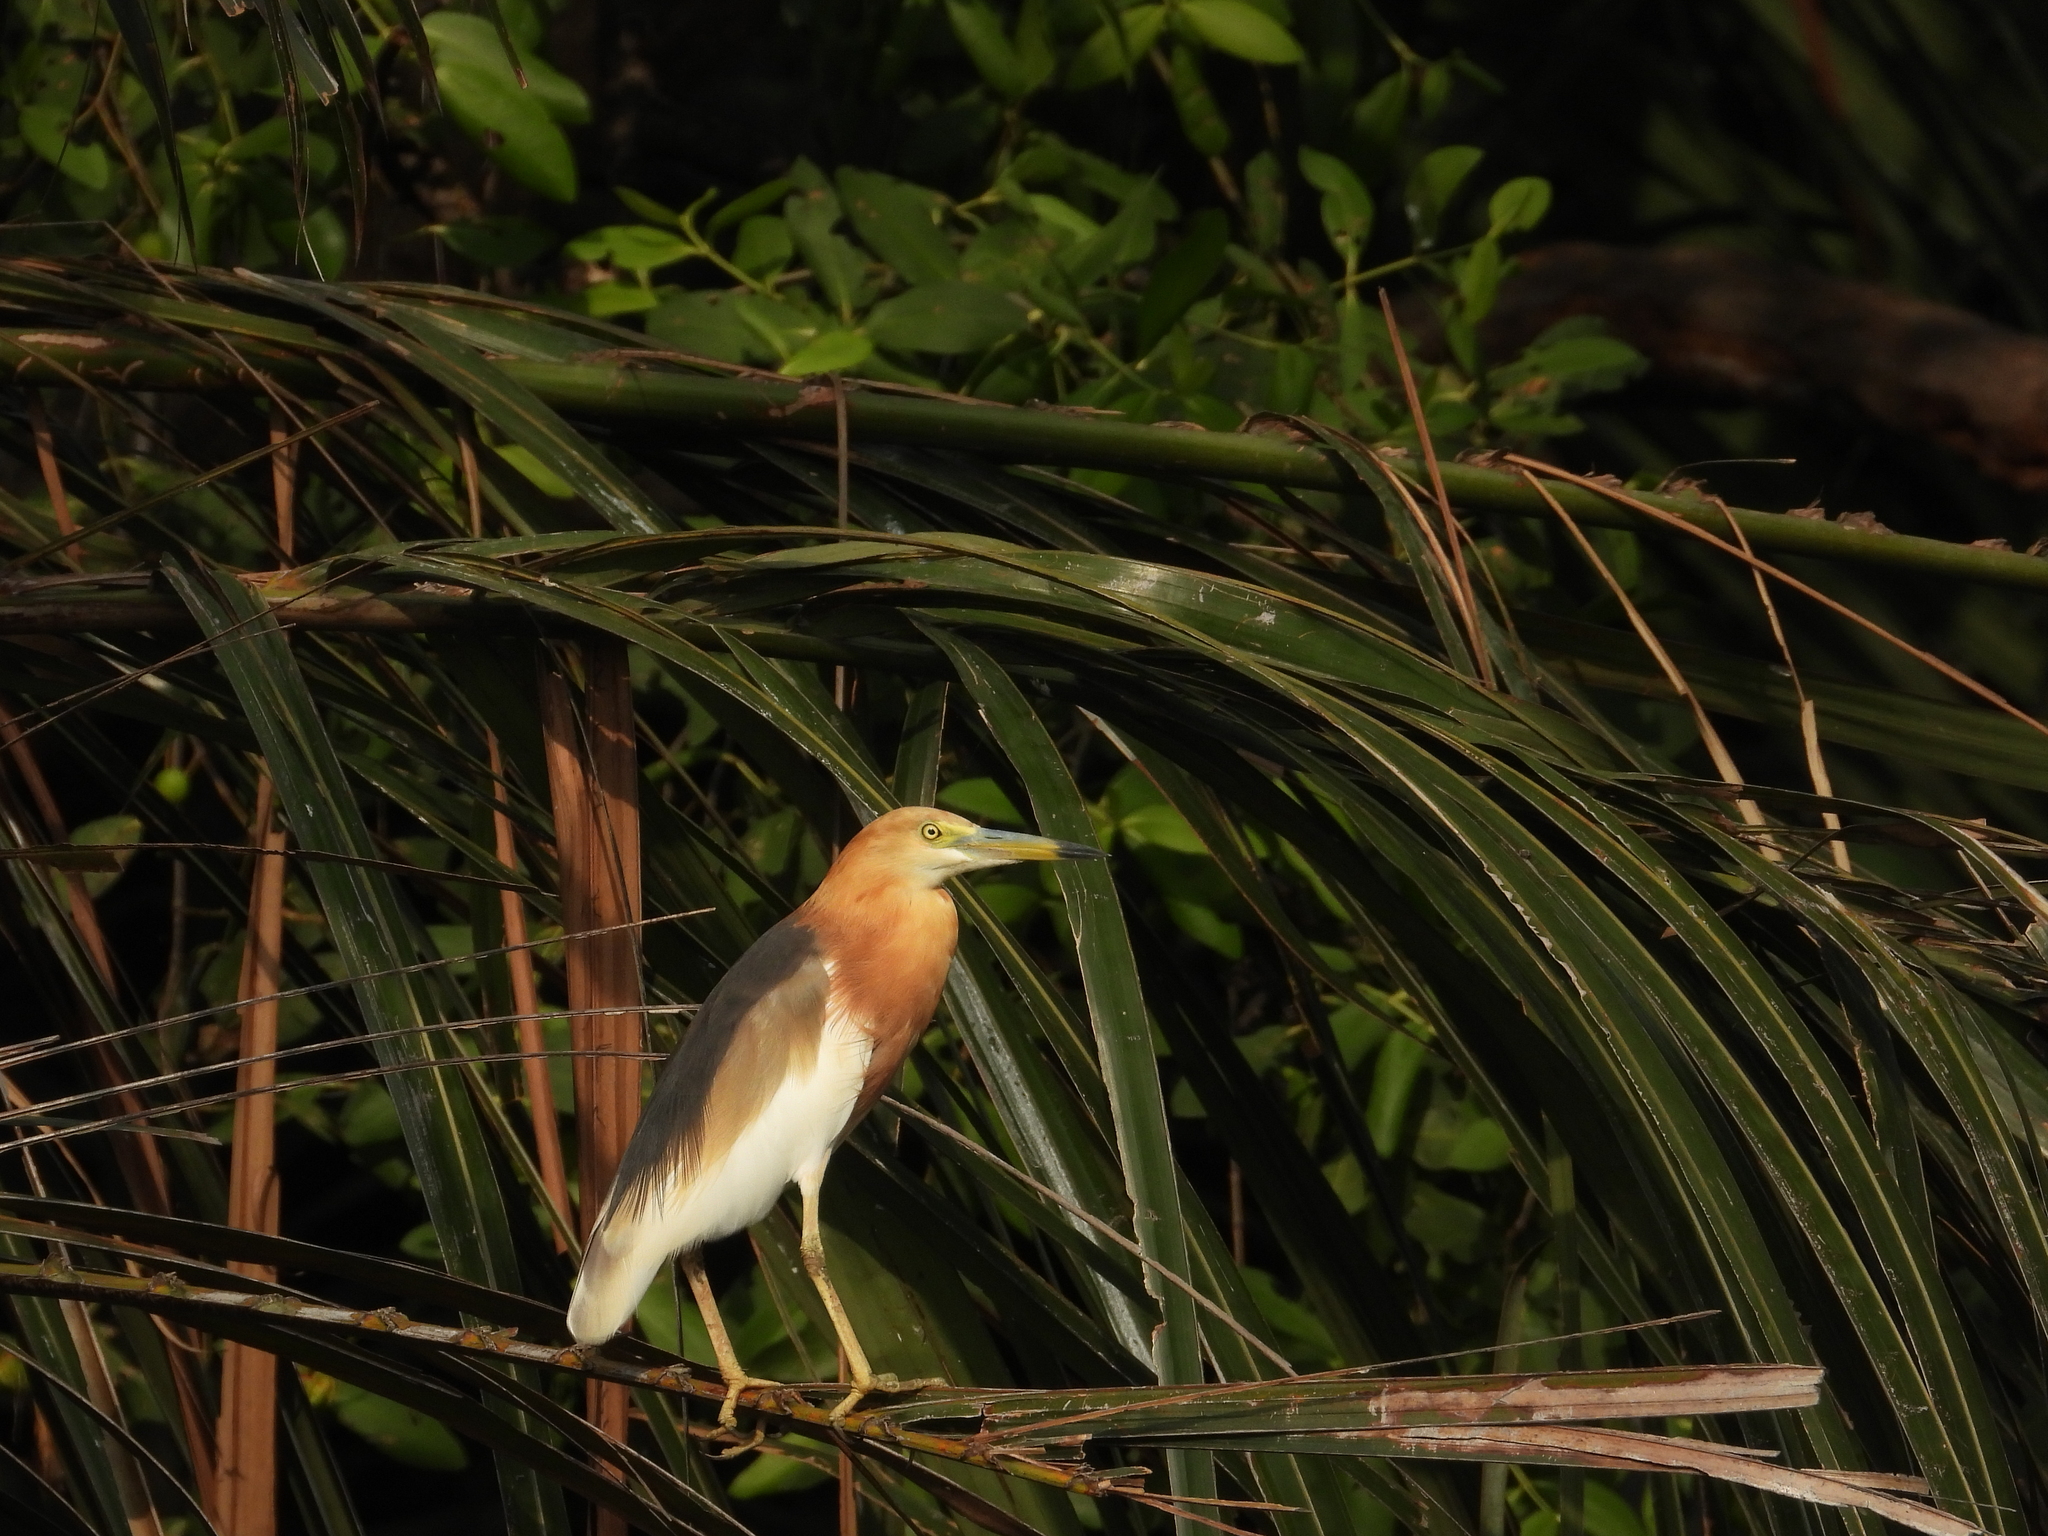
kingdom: Animalia
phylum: Chordata
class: Aves
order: Pelecaniformes
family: Ardeidae
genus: Ardeola
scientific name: Ardeola speciosa
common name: Javan pond heron
